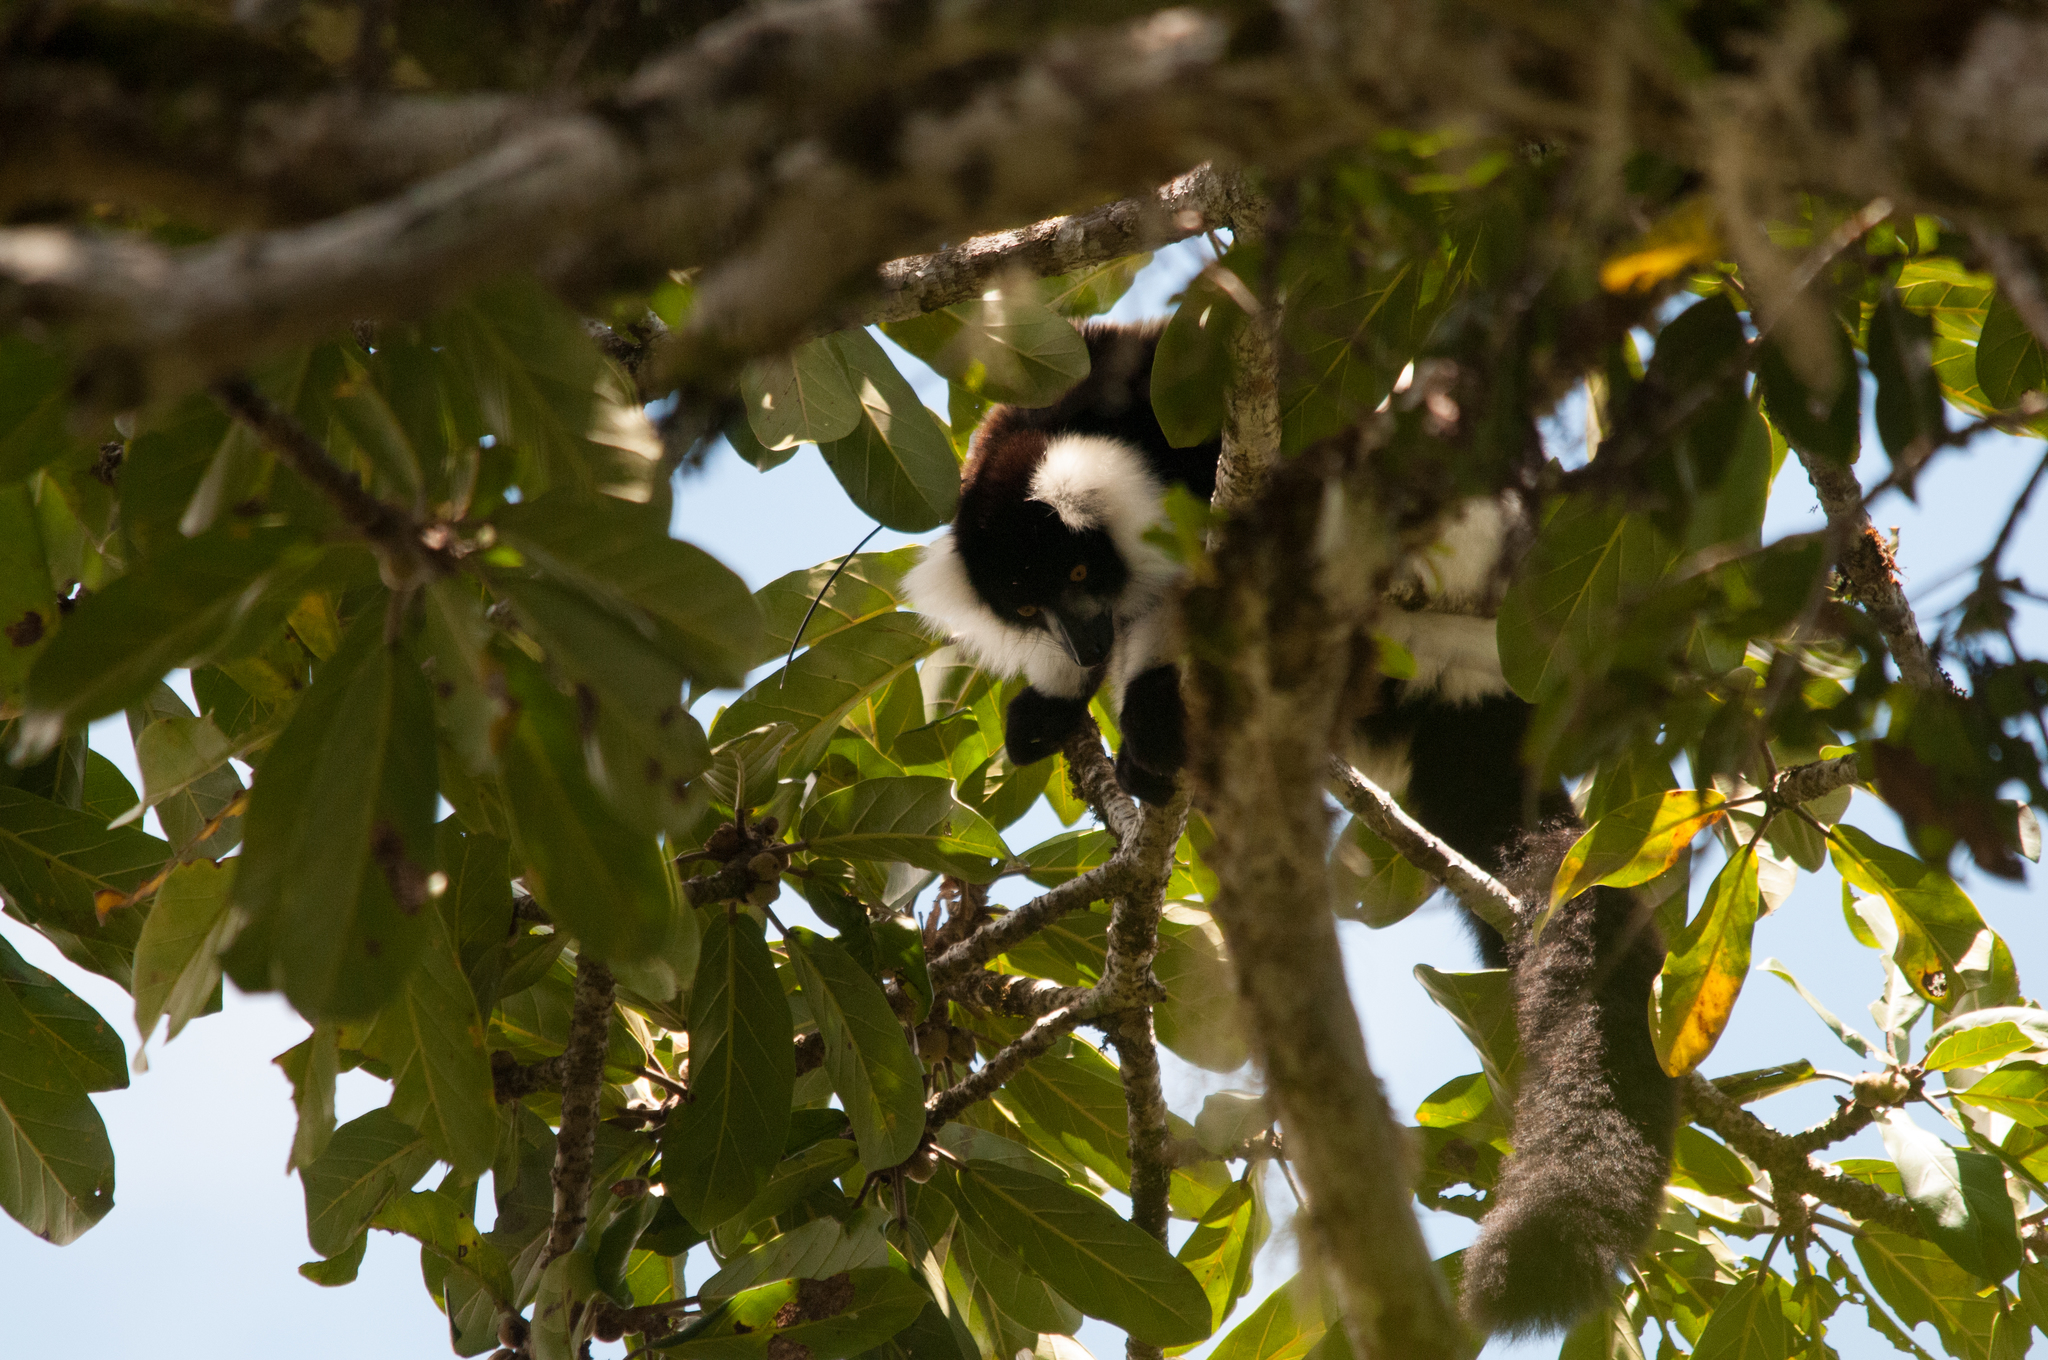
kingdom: Animalia
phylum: Chordata
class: Mammalia
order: Primates
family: Lemuridae
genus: Varecia
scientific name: Varecia variegata
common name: Black-and-white ruffed lemur
